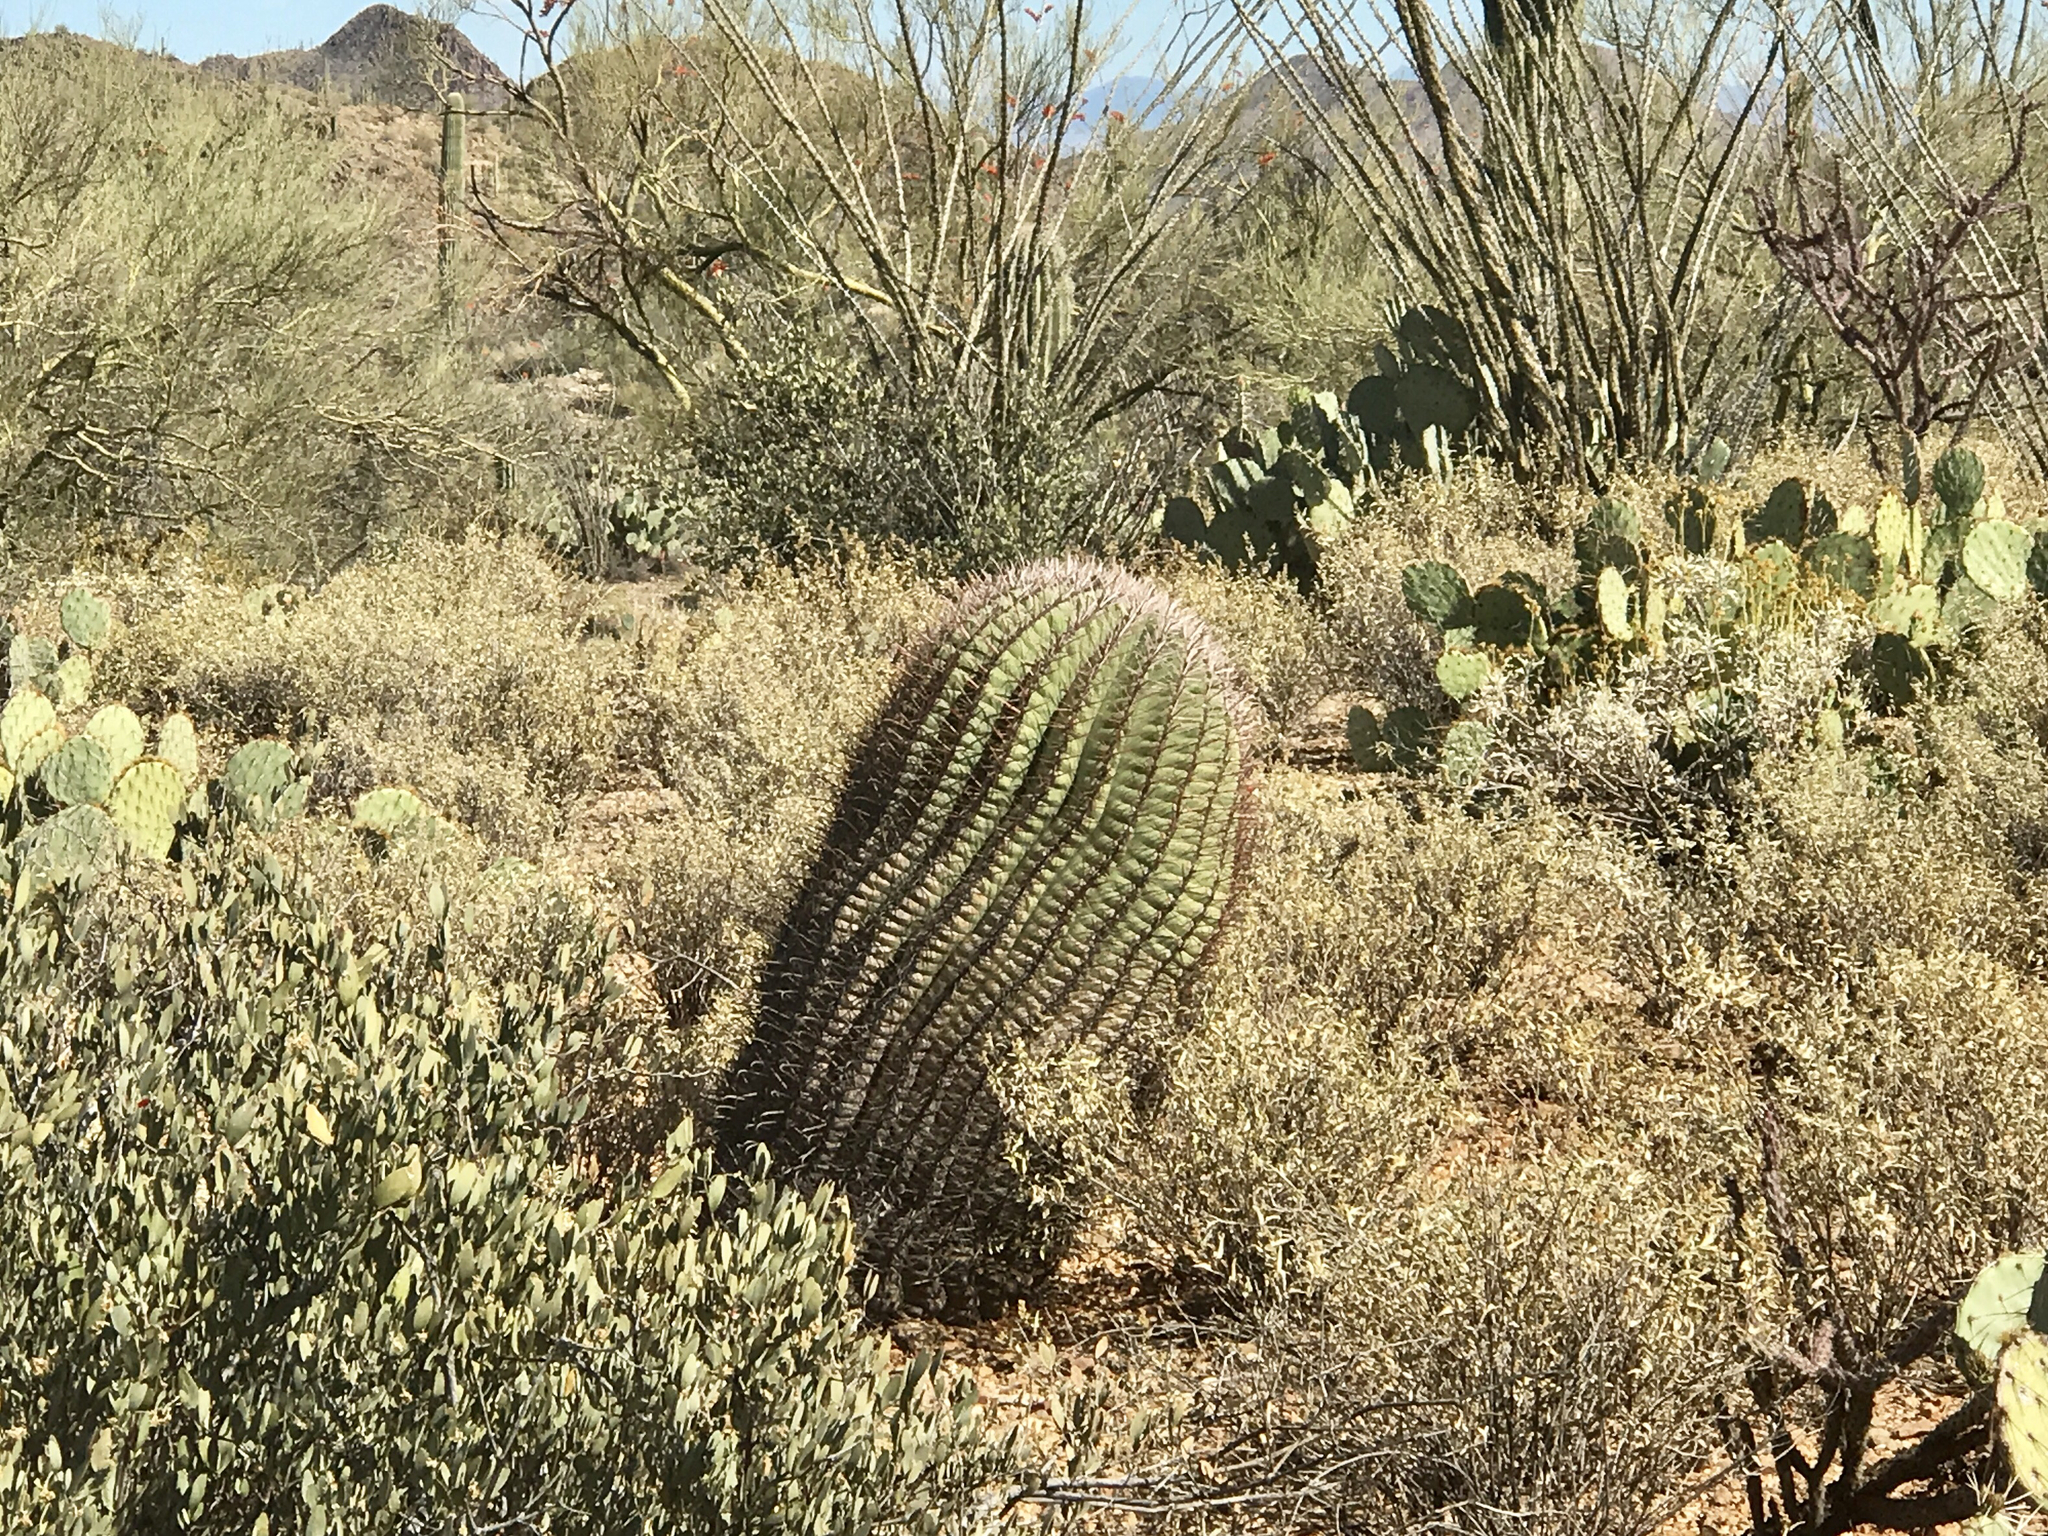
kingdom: Plantae
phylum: Tracheophyta
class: Magnoliopsida
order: Caryophyllales
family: Cactaceae
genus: Ferocactus
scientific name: Ferocactus wislizeni
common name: Candy barrel cactus
